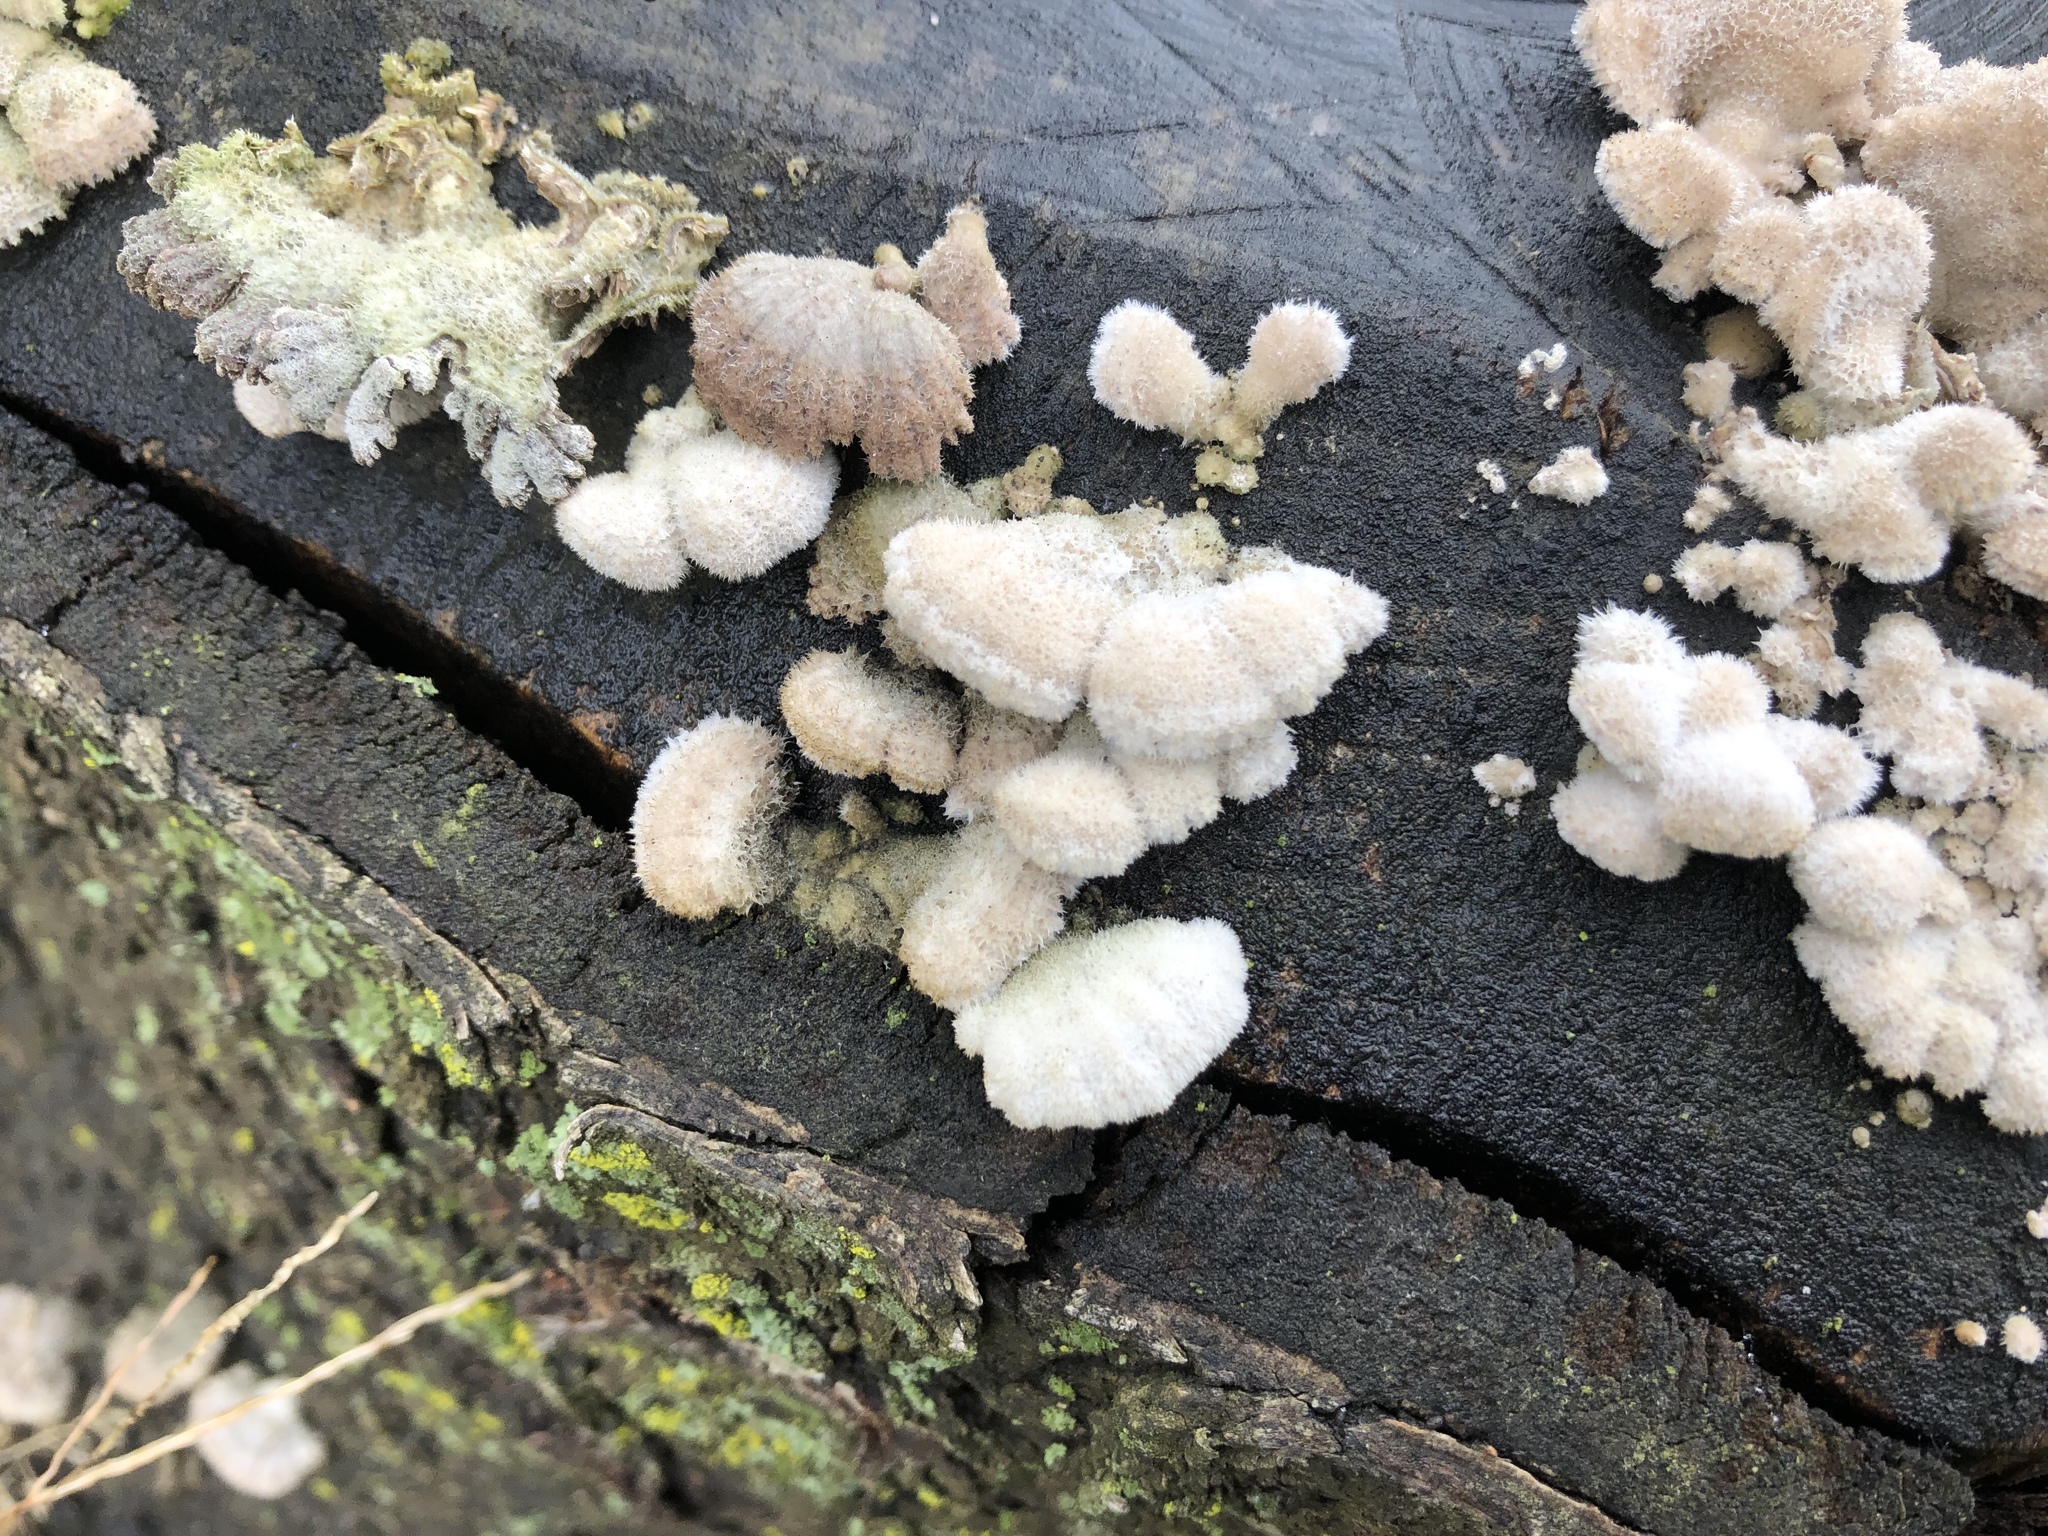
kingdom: Fungi
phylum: Basidiomycota
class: Agaricomycetes
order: Agaricales
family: Schizophyllaceae
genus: Schizophyllum
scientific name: Schizophyllum commune
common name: Common porecrust
